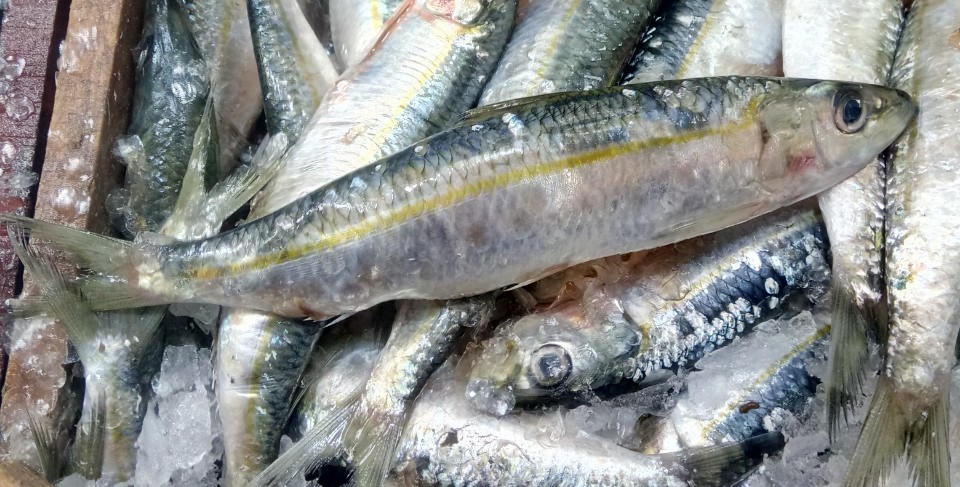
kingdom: Animalia
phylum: Chordata
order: Clupeiformes
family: Clupeidae
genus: Sardinella
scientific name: Sardinella aurita
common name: Round sardinella
